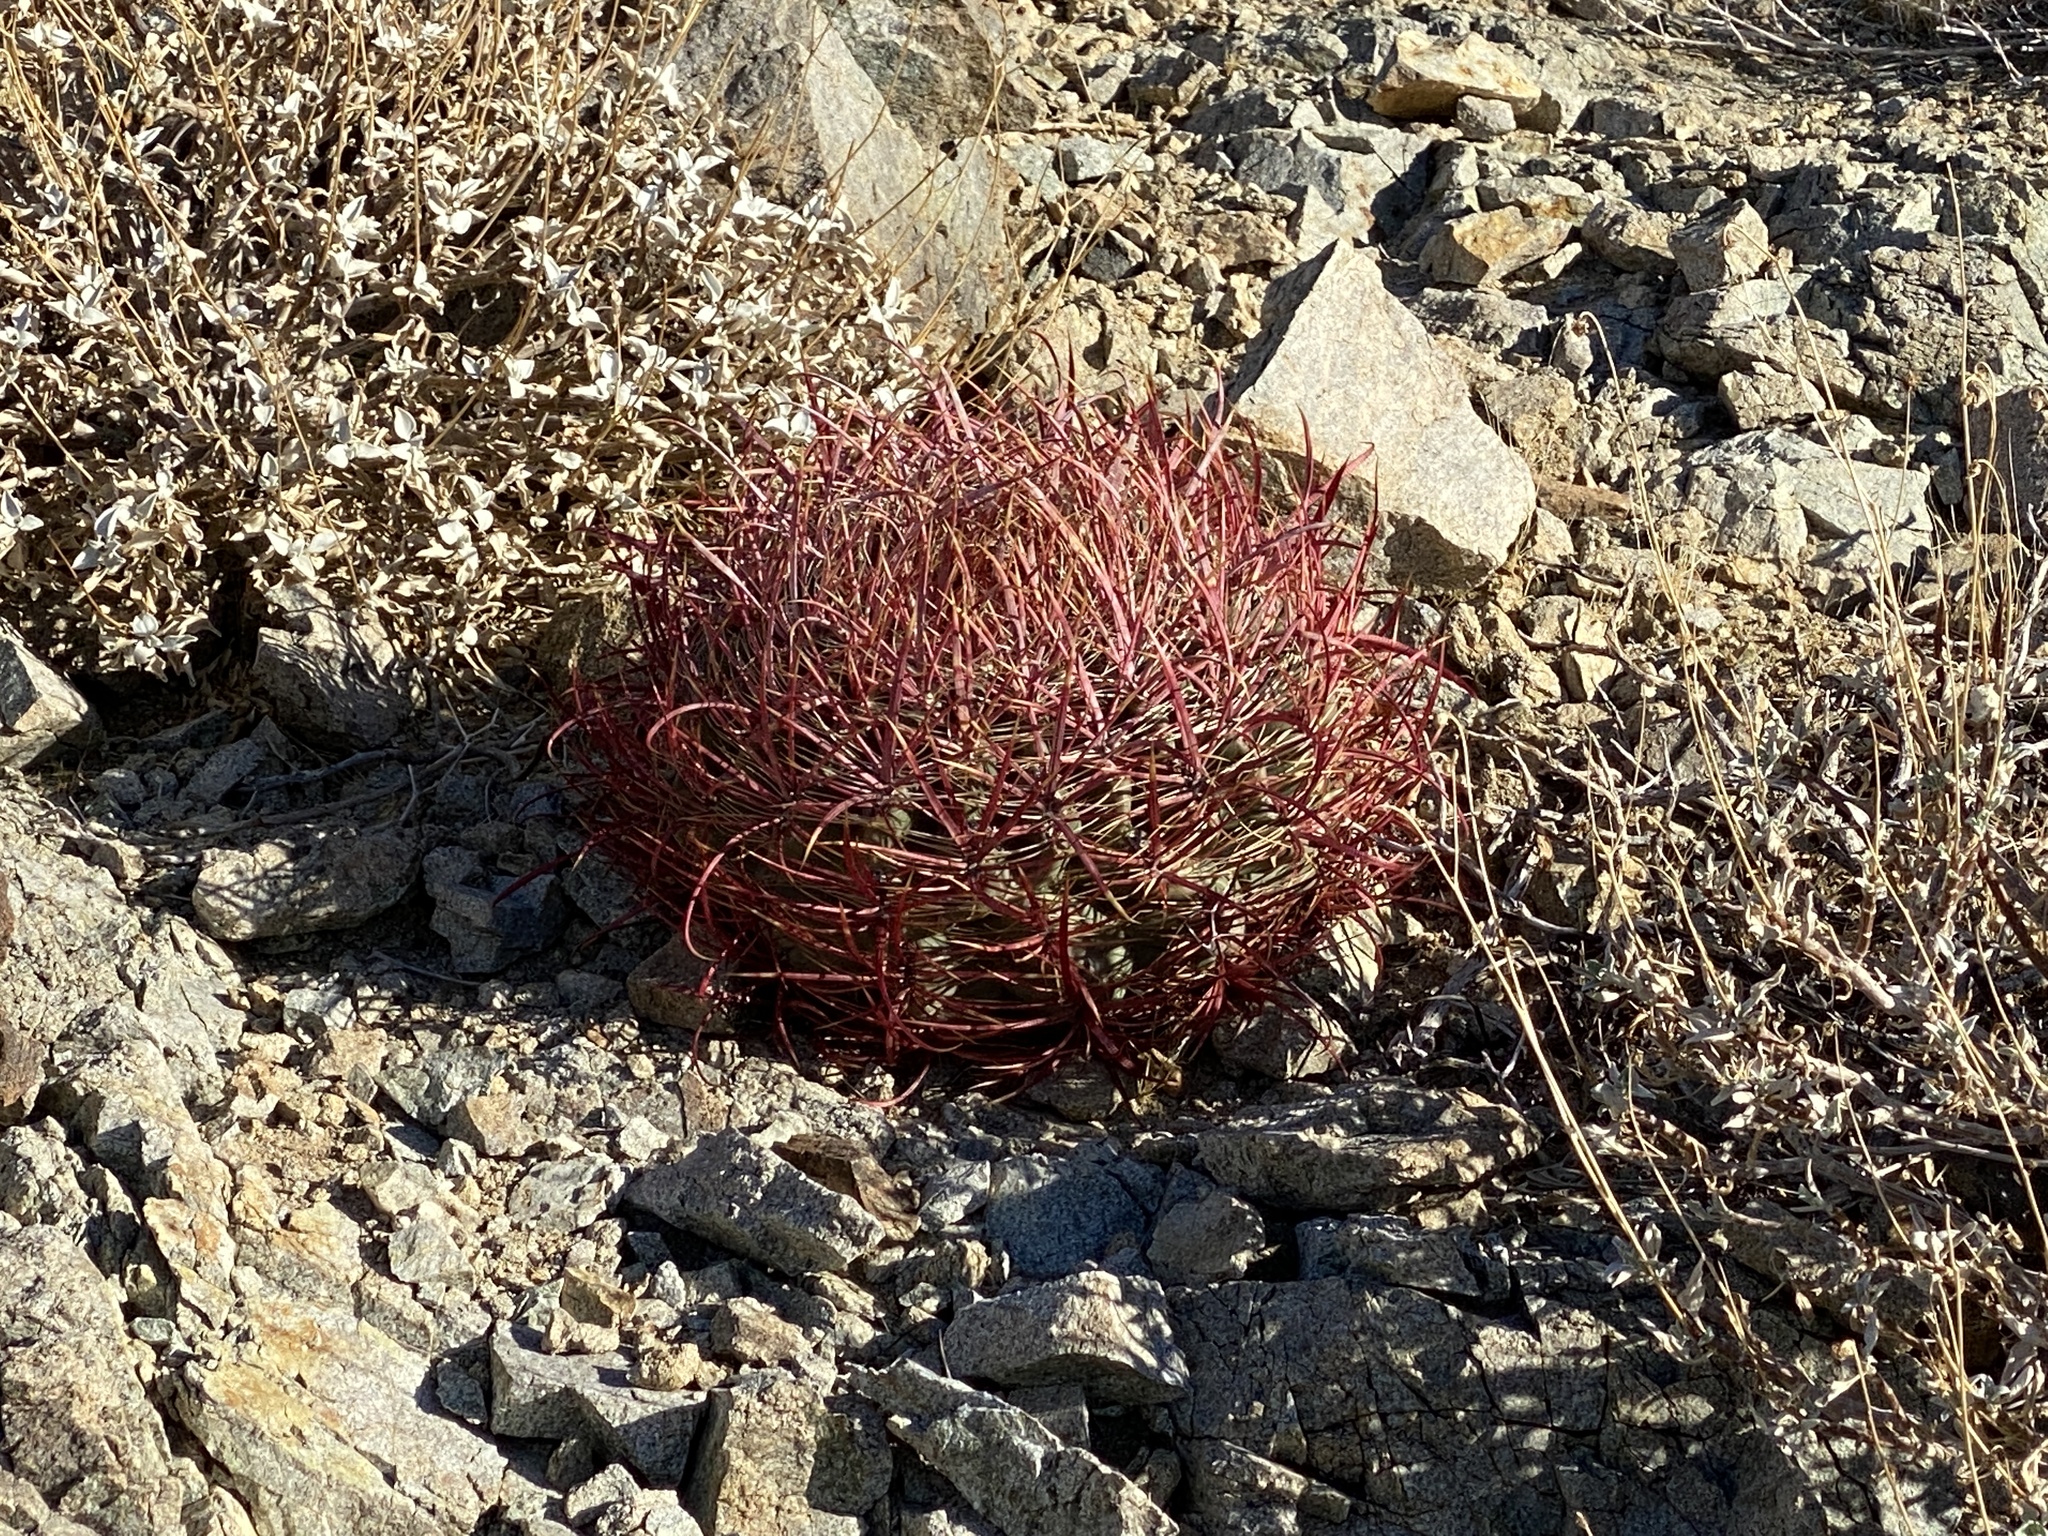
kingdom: Plantae
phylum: Tracheophyta
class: Magnoliopsida
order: Caryophyllales
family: Cactaceae
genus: Ferocactus
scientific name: Ferocactus cylindraceus
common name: California barrel cactus
